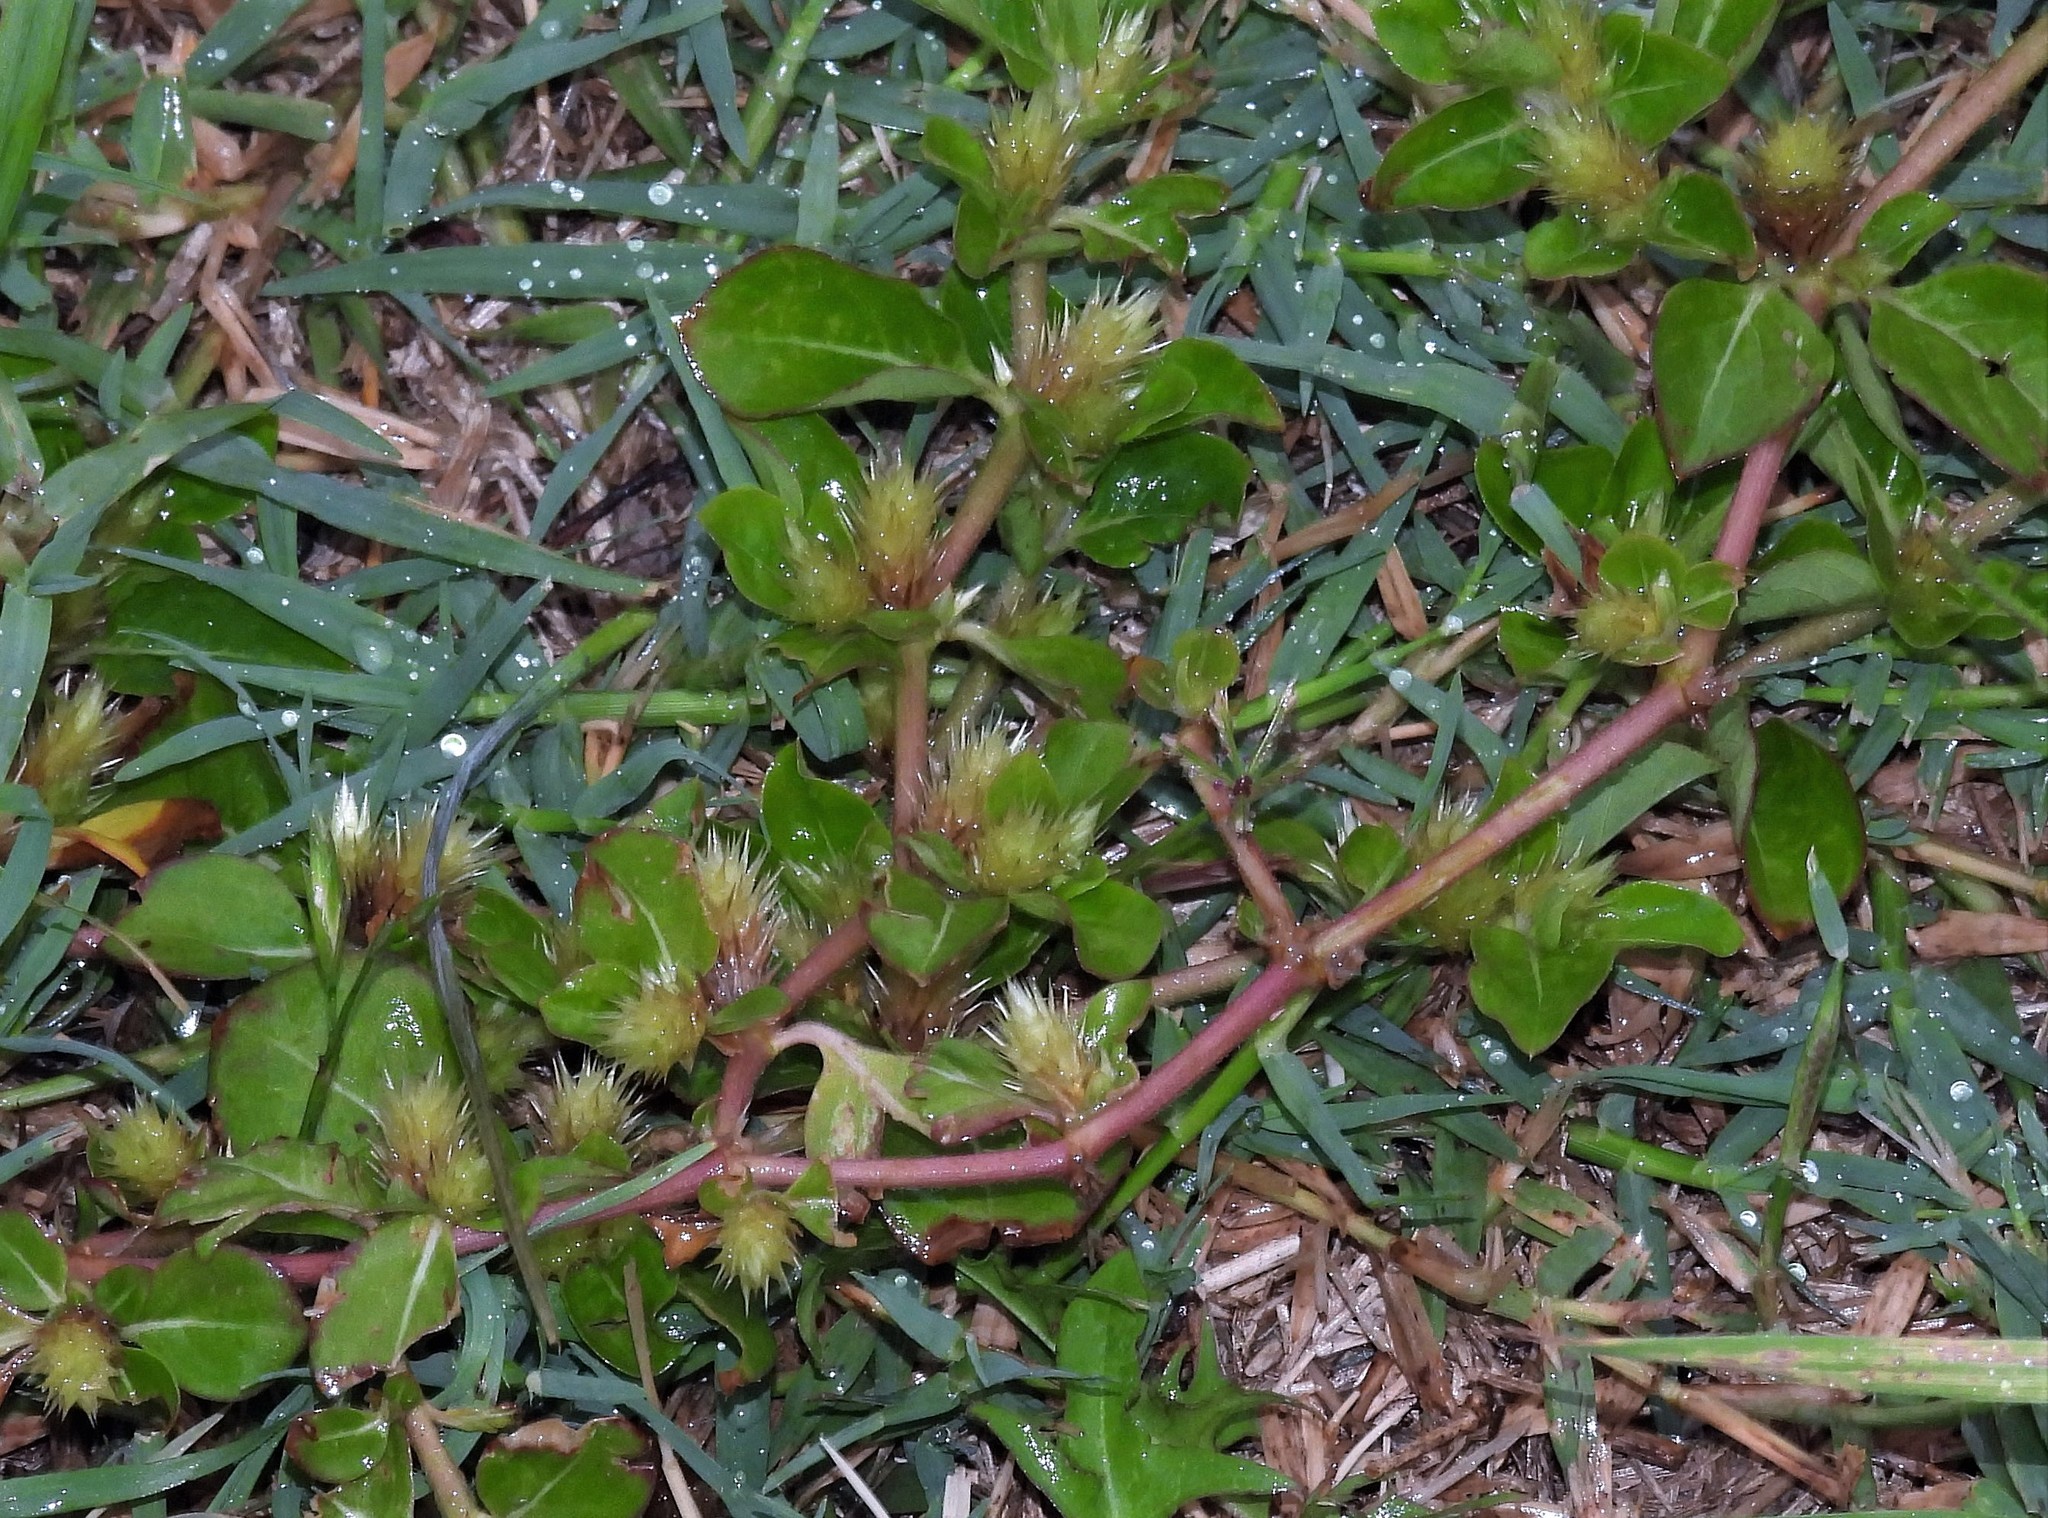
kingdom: Plantae
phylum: Tracheophyta
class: Magnoliopsida
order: Caryophyllales
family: Amaranthaceae
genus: Alternanthera
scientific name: Alternanthera pungens
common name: Khakiweed
